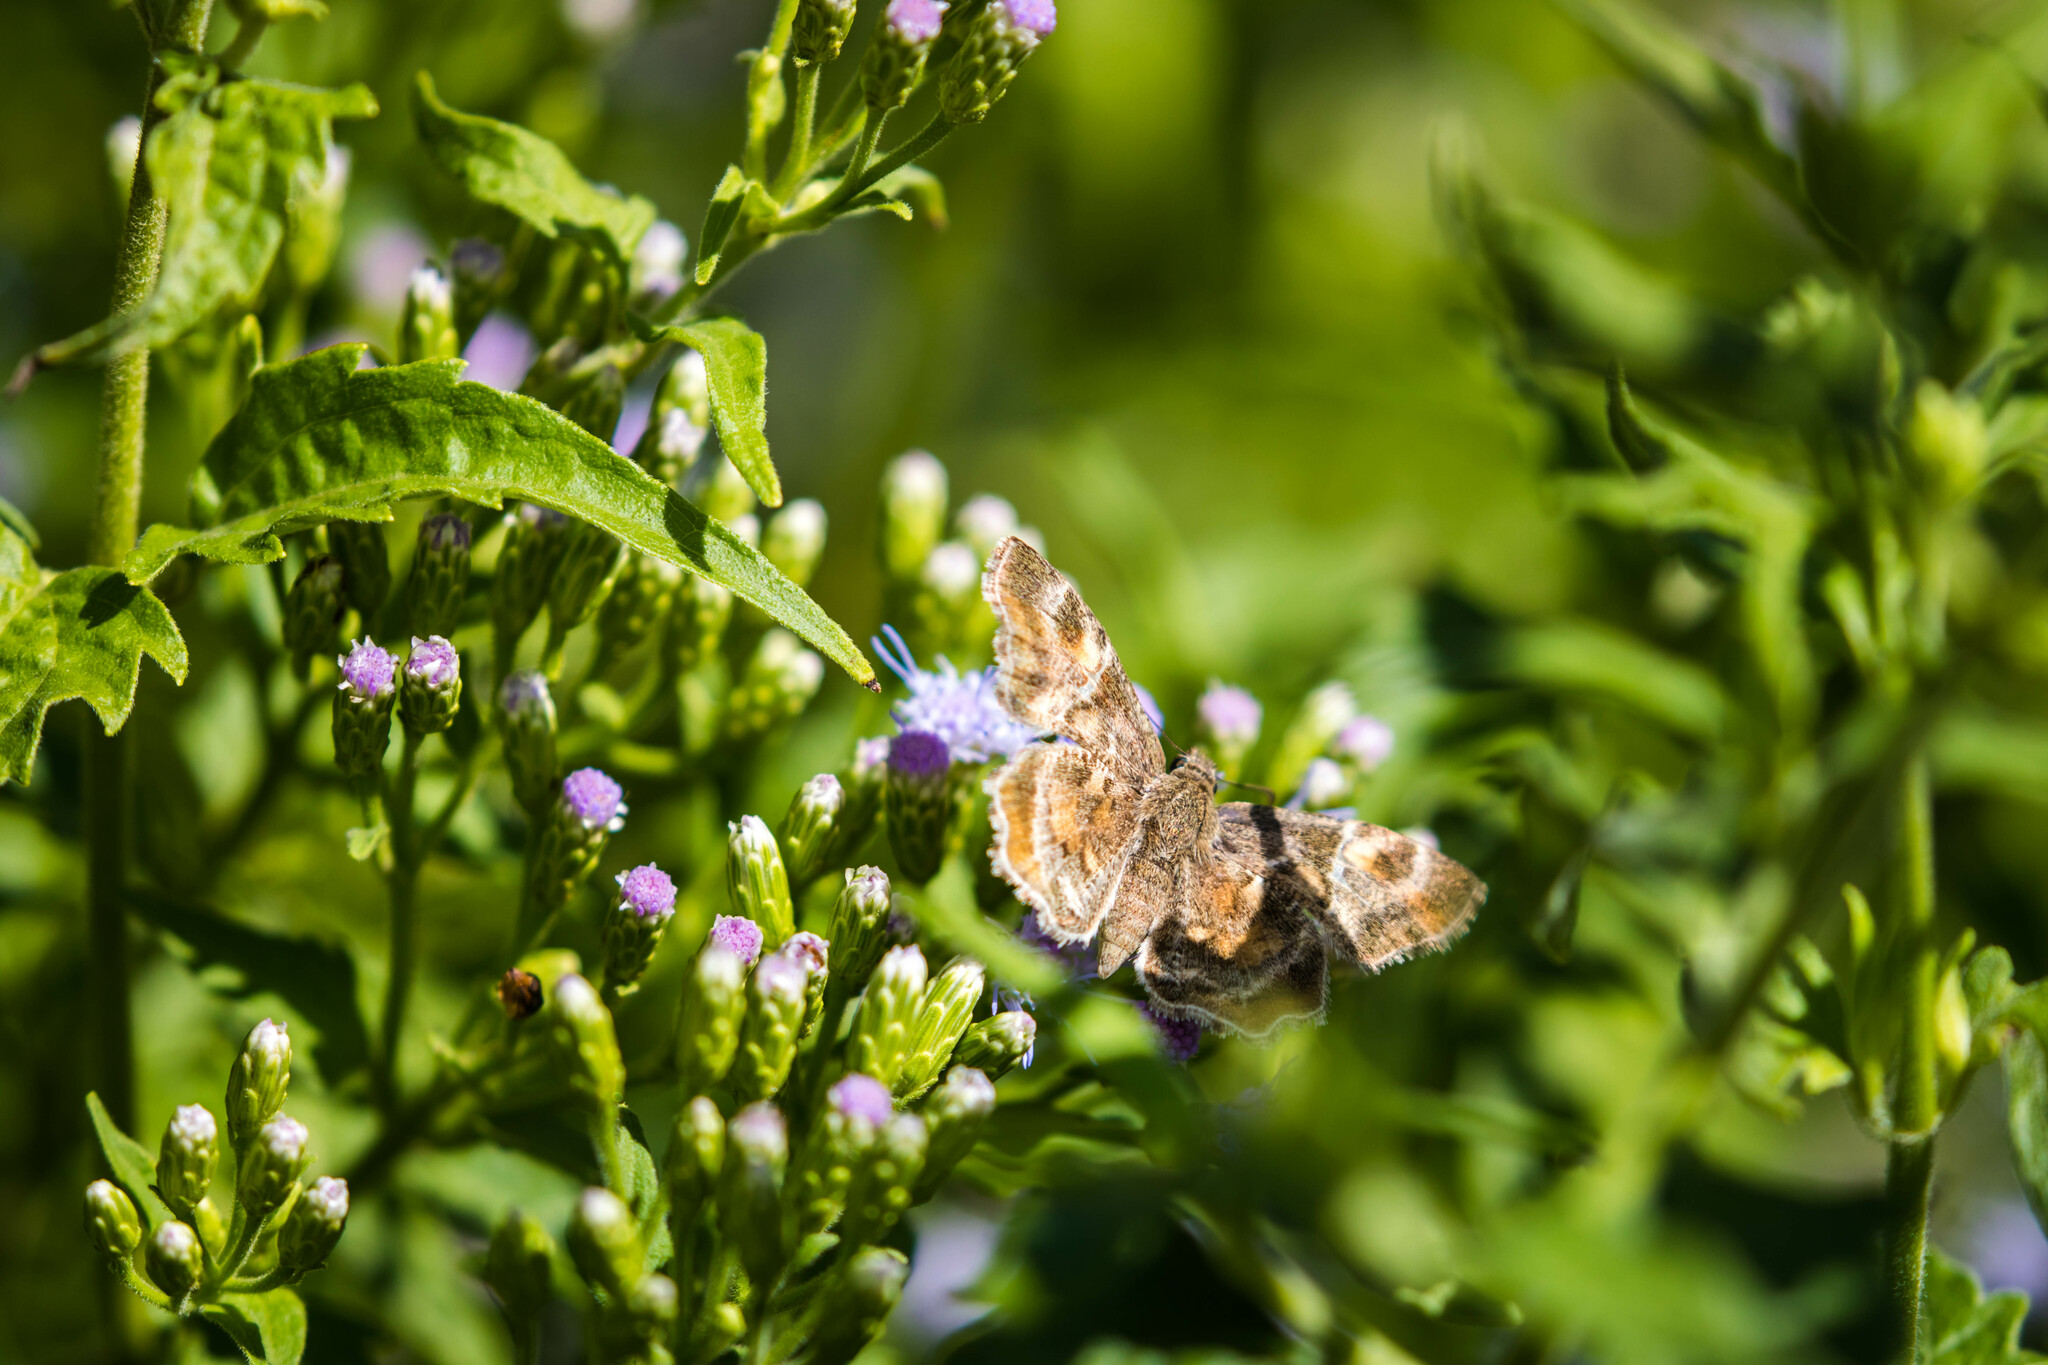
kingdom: Animalia
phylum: Arthropoda
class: Insecta
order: Lepidoptera
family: Hesperiidae
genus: Systasea
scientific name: Systasea pulverulenta
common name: Texas powdered skipper
